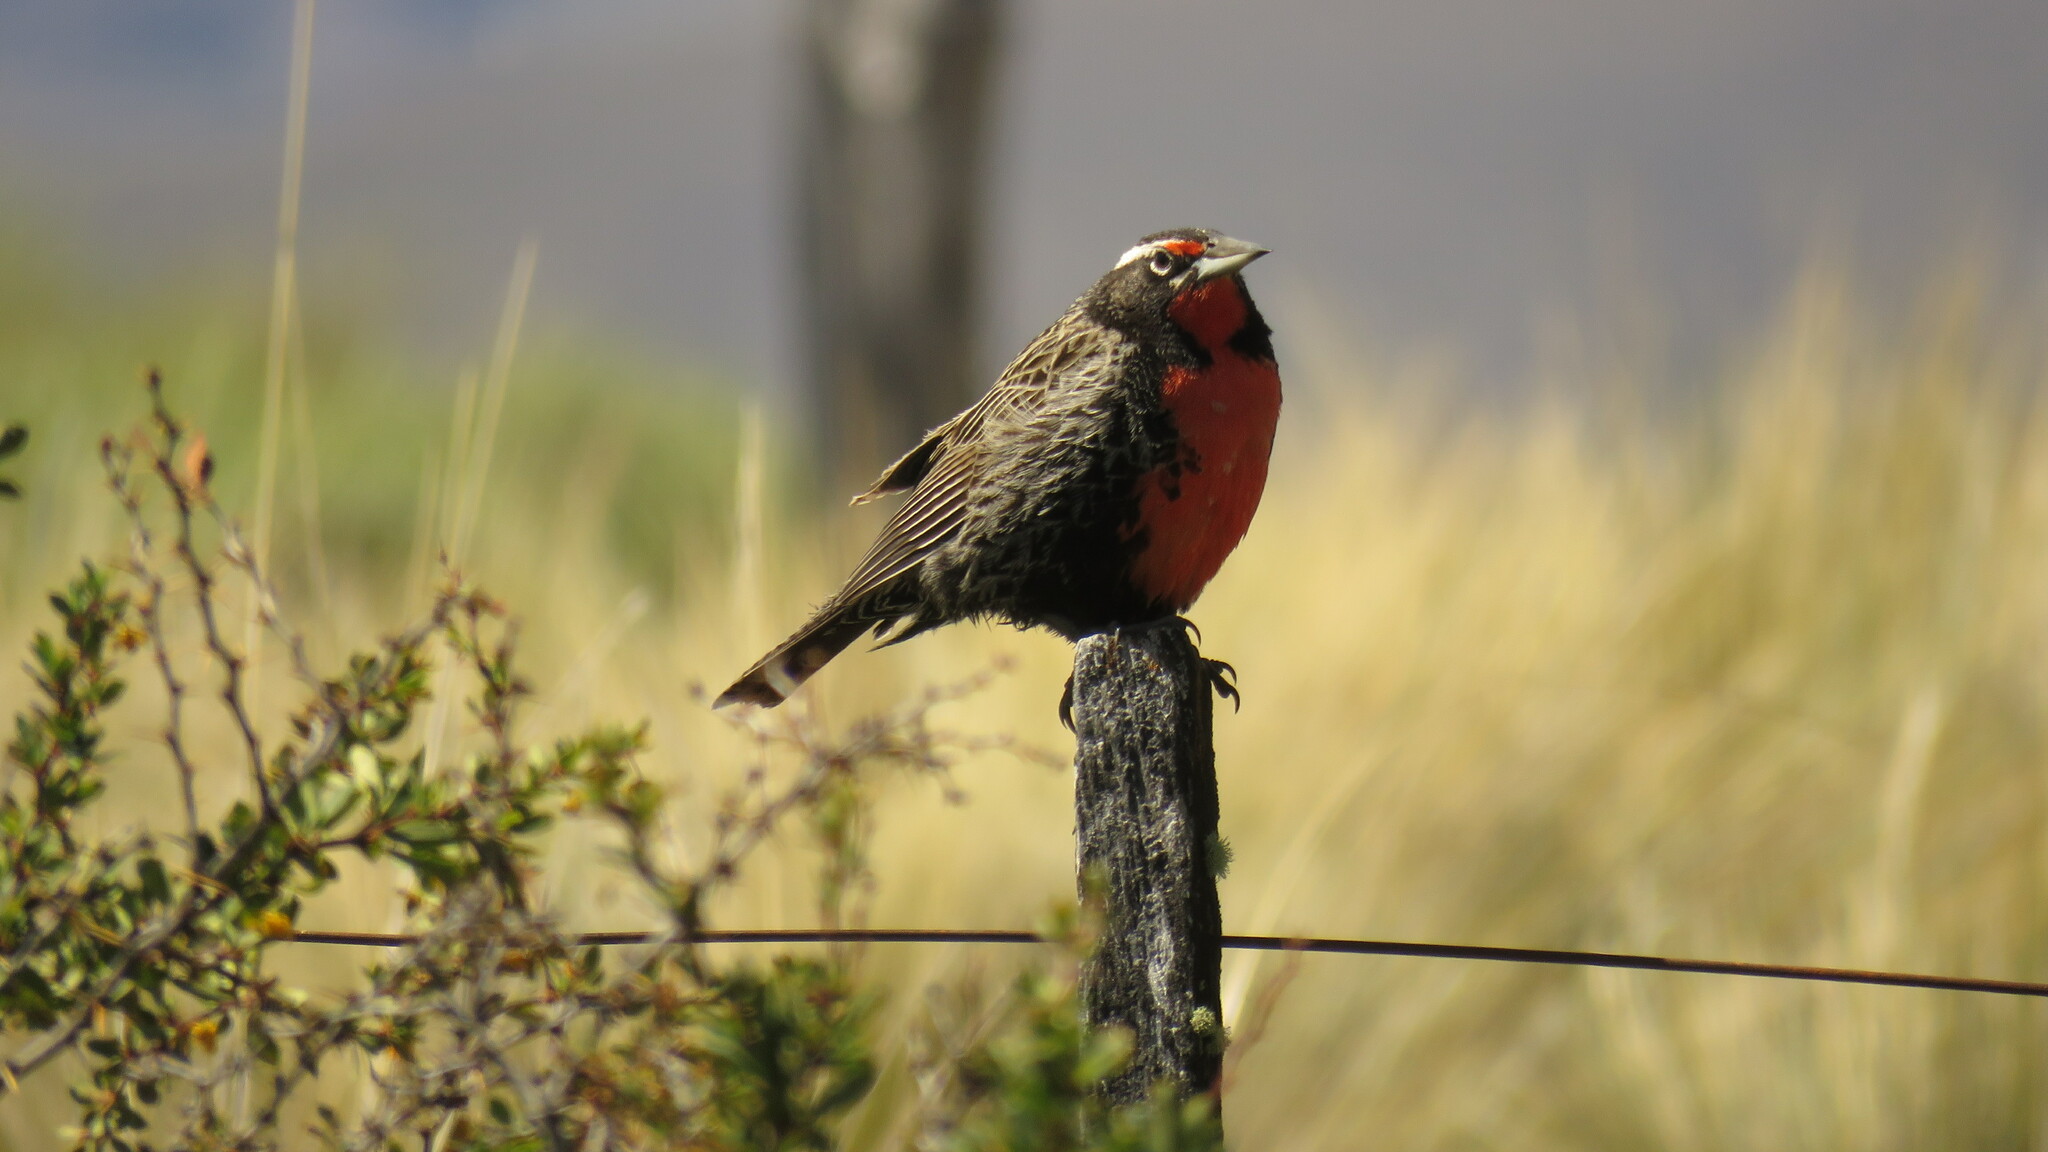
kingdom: Animalia
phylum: Chordata
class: Aves
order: Passeriformes
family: Icteridae
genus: Sturnella
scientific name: Sturnella loyca
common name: Long-tailed meadowlark
